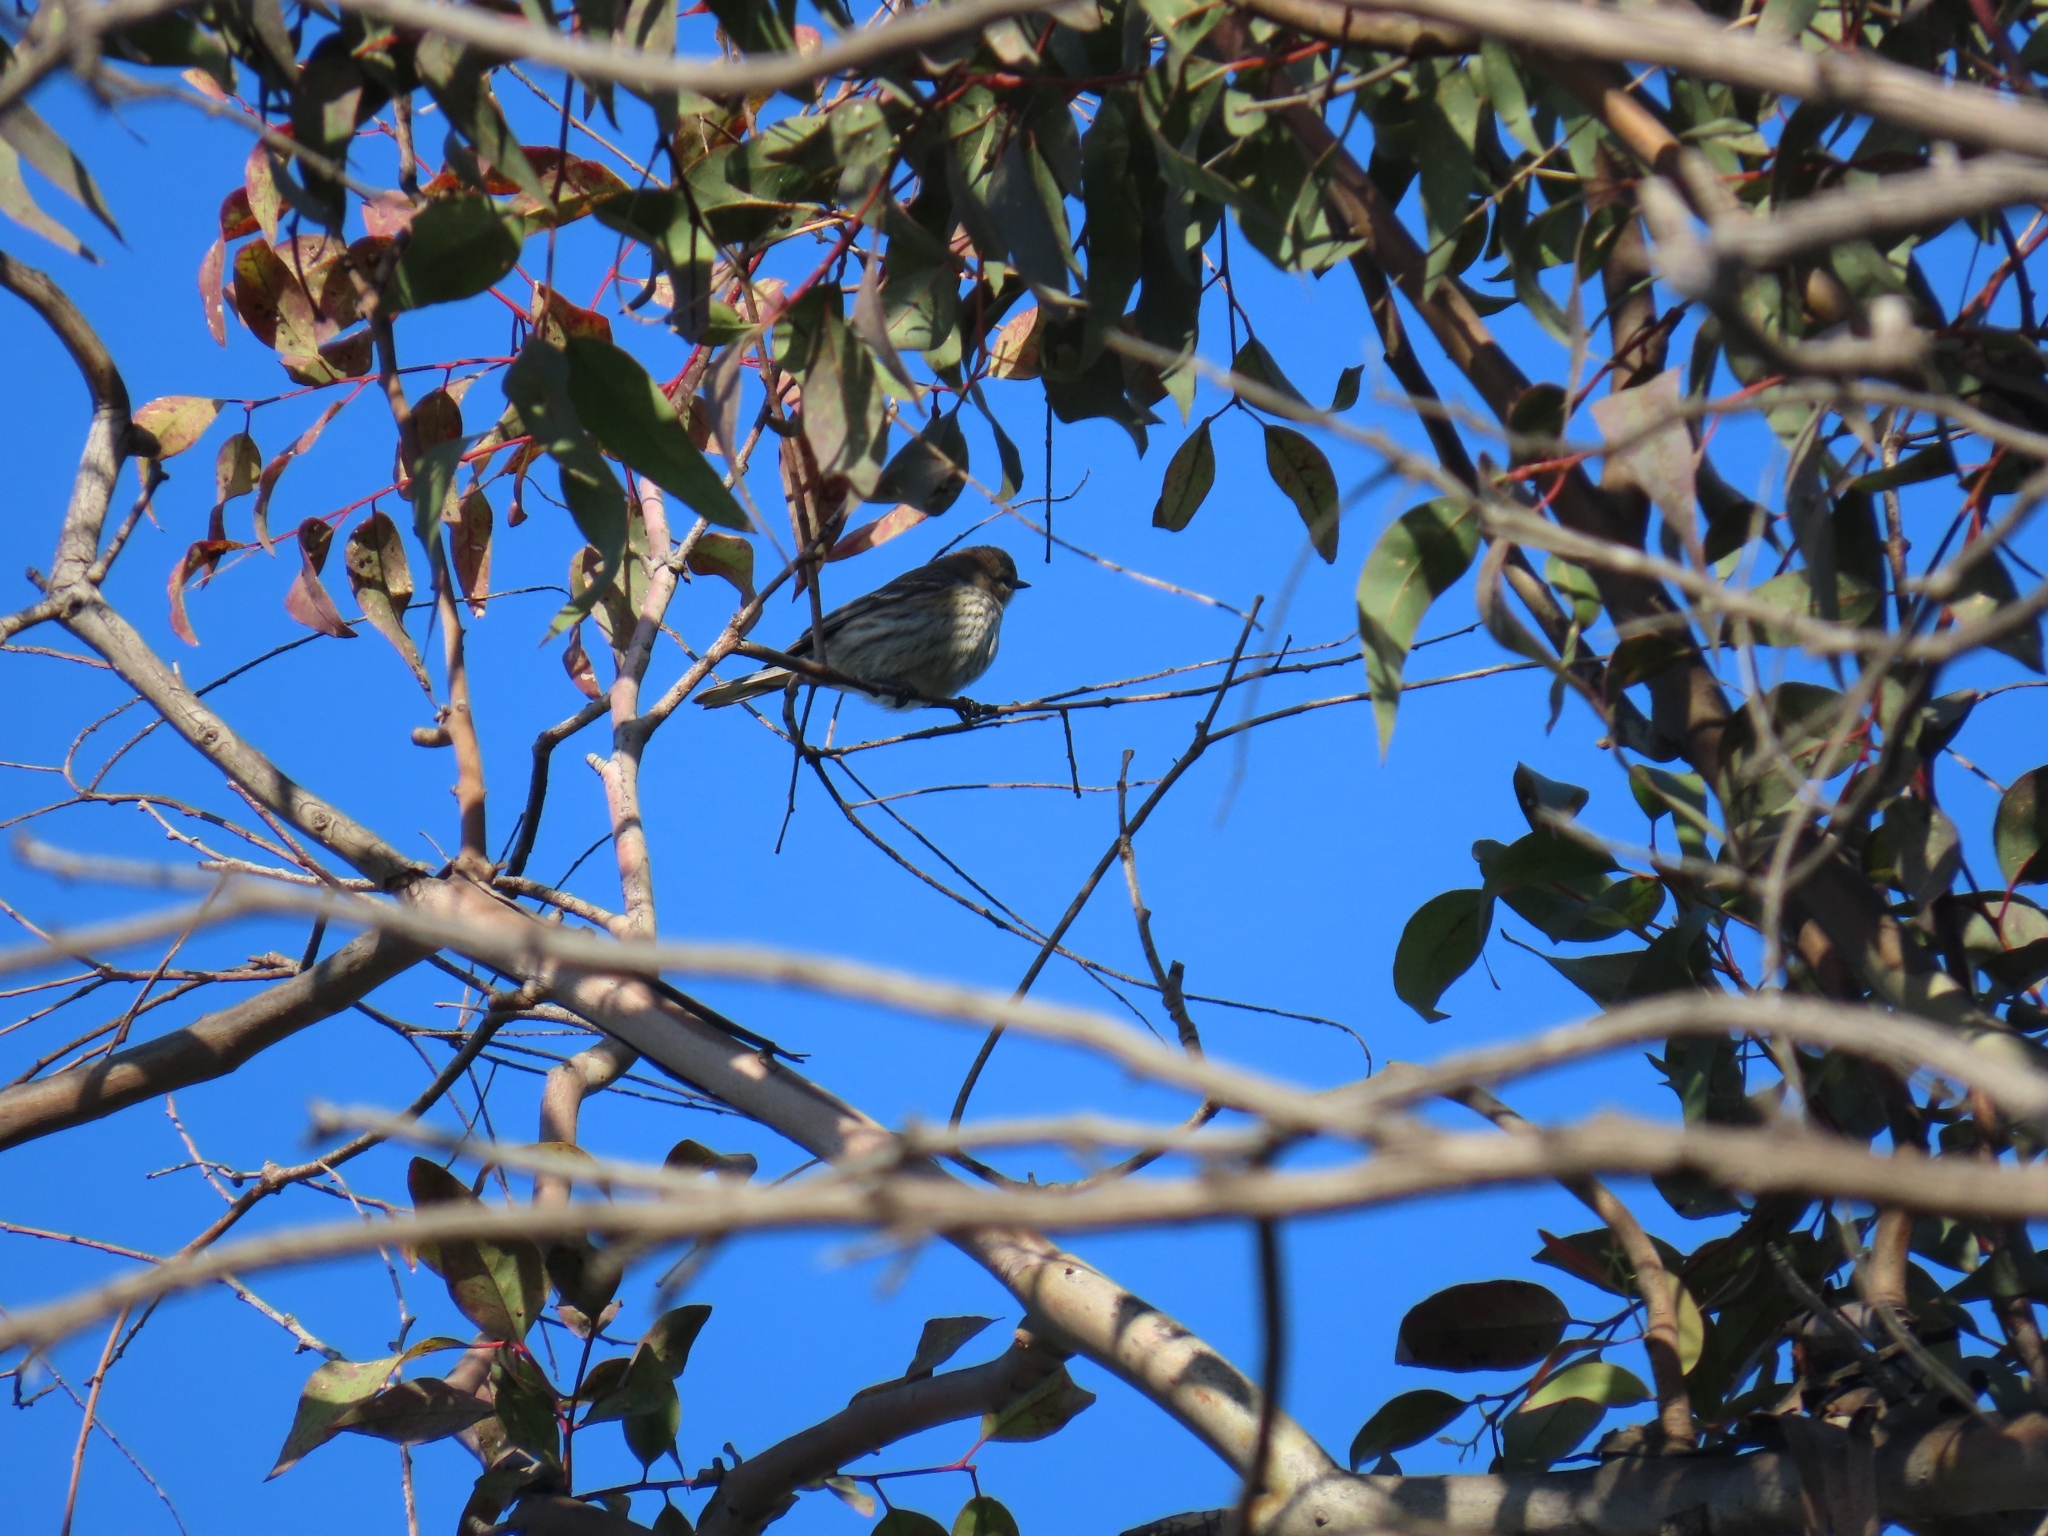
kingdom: Animalia
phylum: Chordata
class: Aves
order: Passeriformes
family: Parulidae
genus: Setophaga
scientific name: Setophaga coronata
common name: Myrtle warbler
